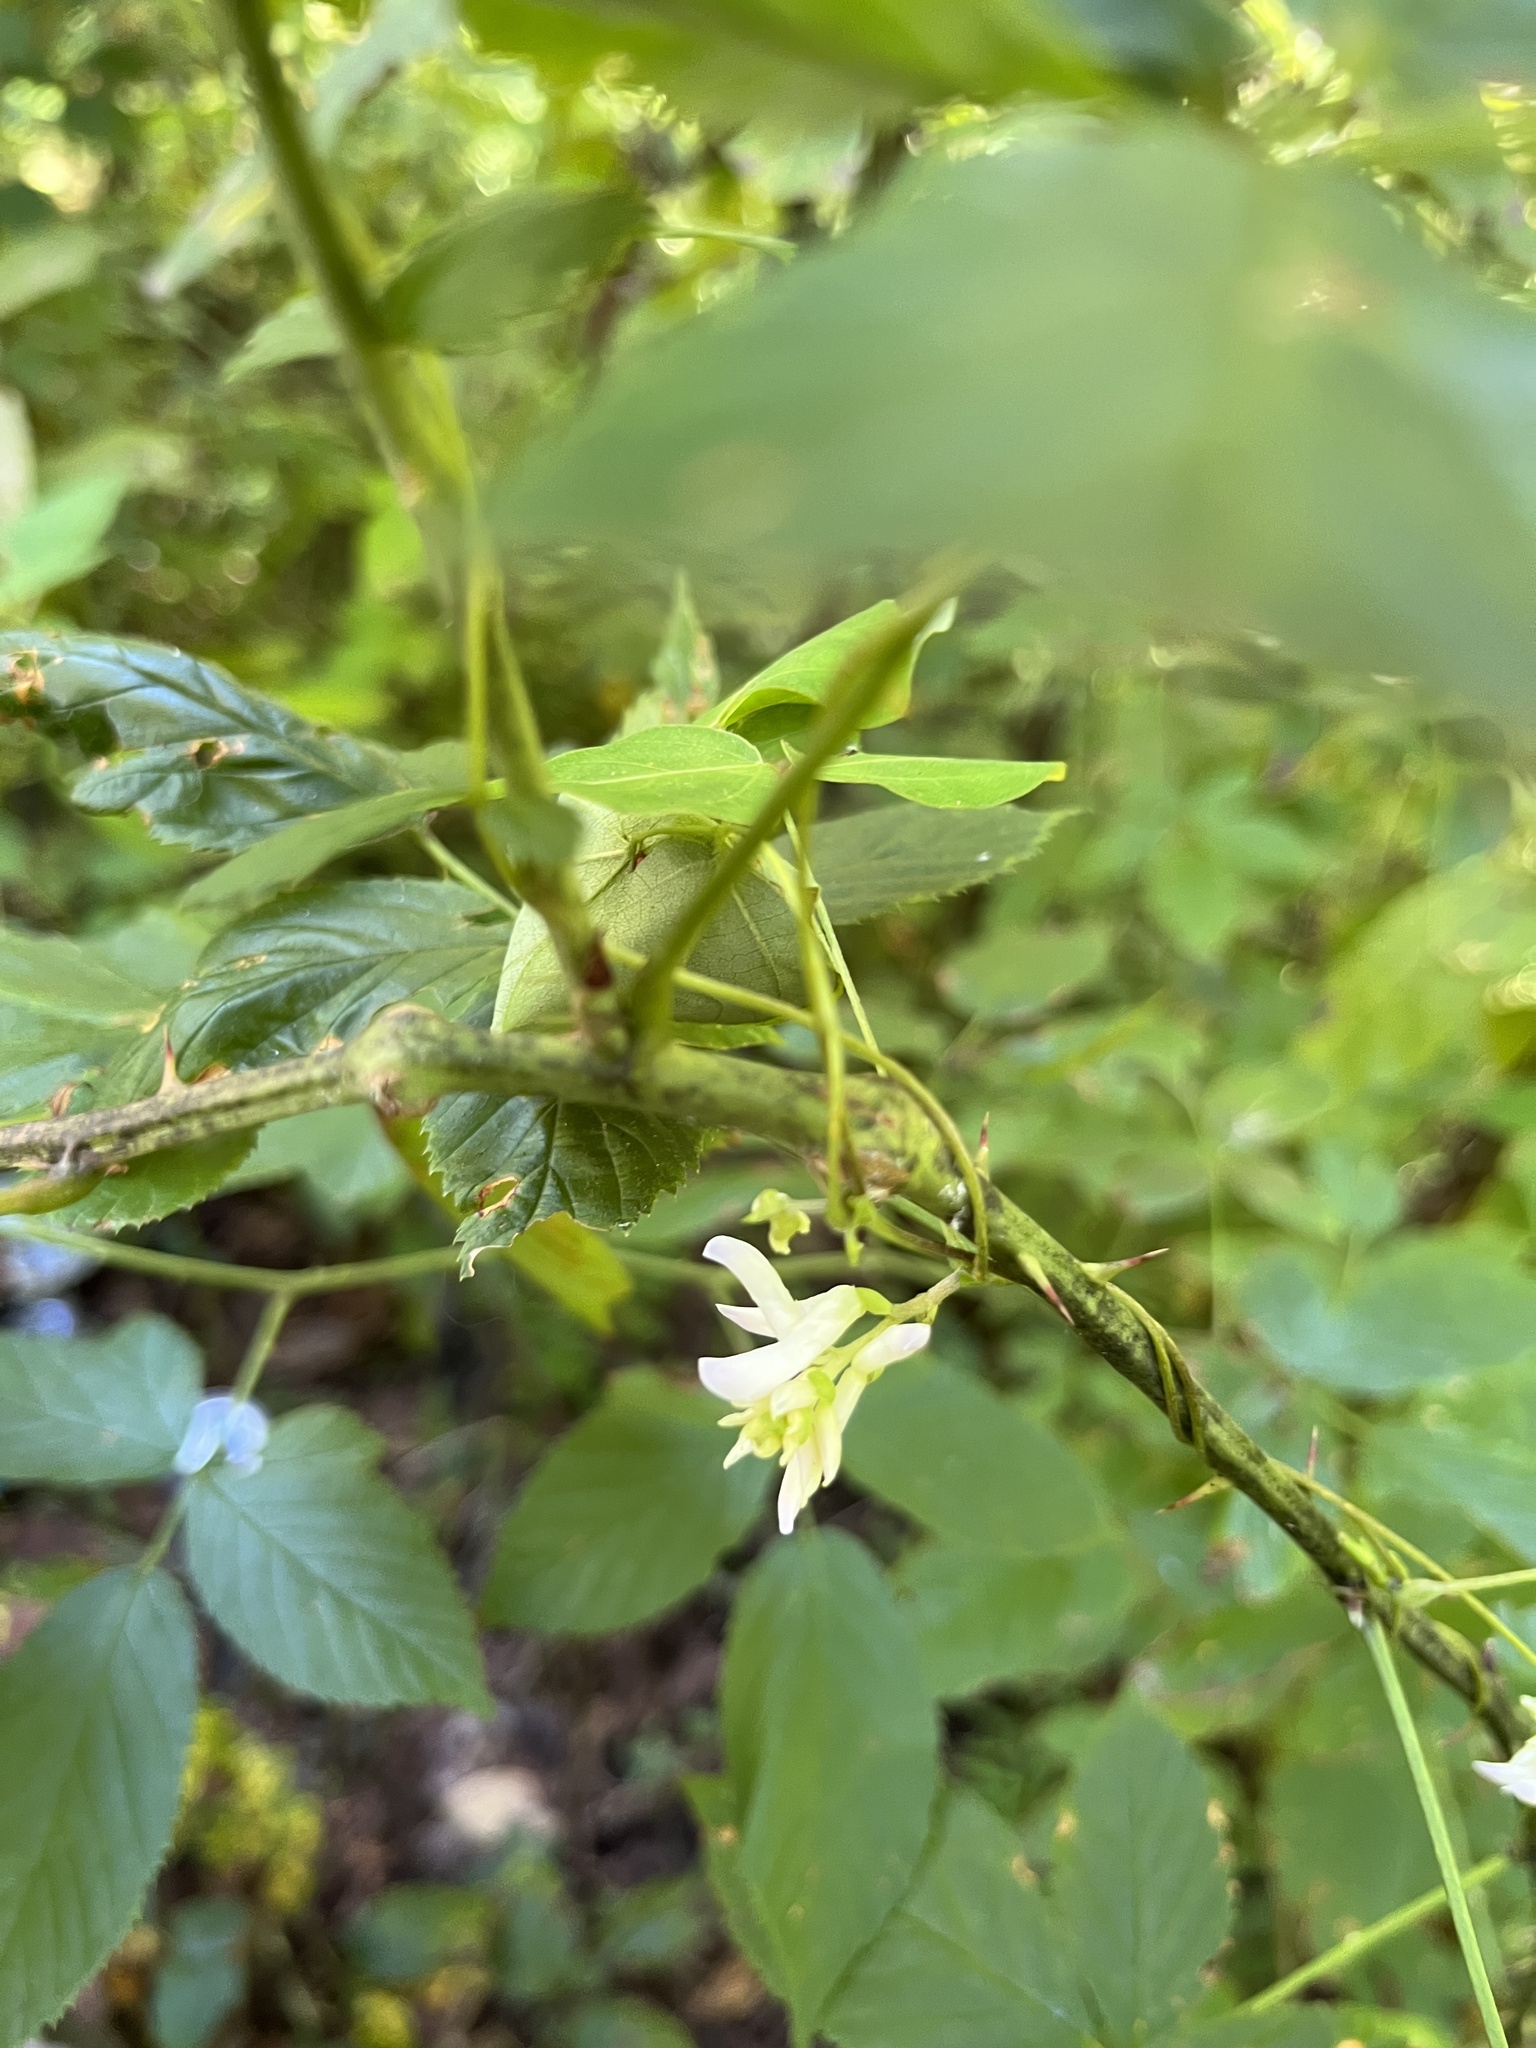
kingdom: Plantae
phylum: Tracheophyta
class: Magnoliopsida
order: Fabales
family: Fabaceae
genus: Amphicarpaea
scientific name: Amphicarpaea bracteata
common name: American hog peanut
